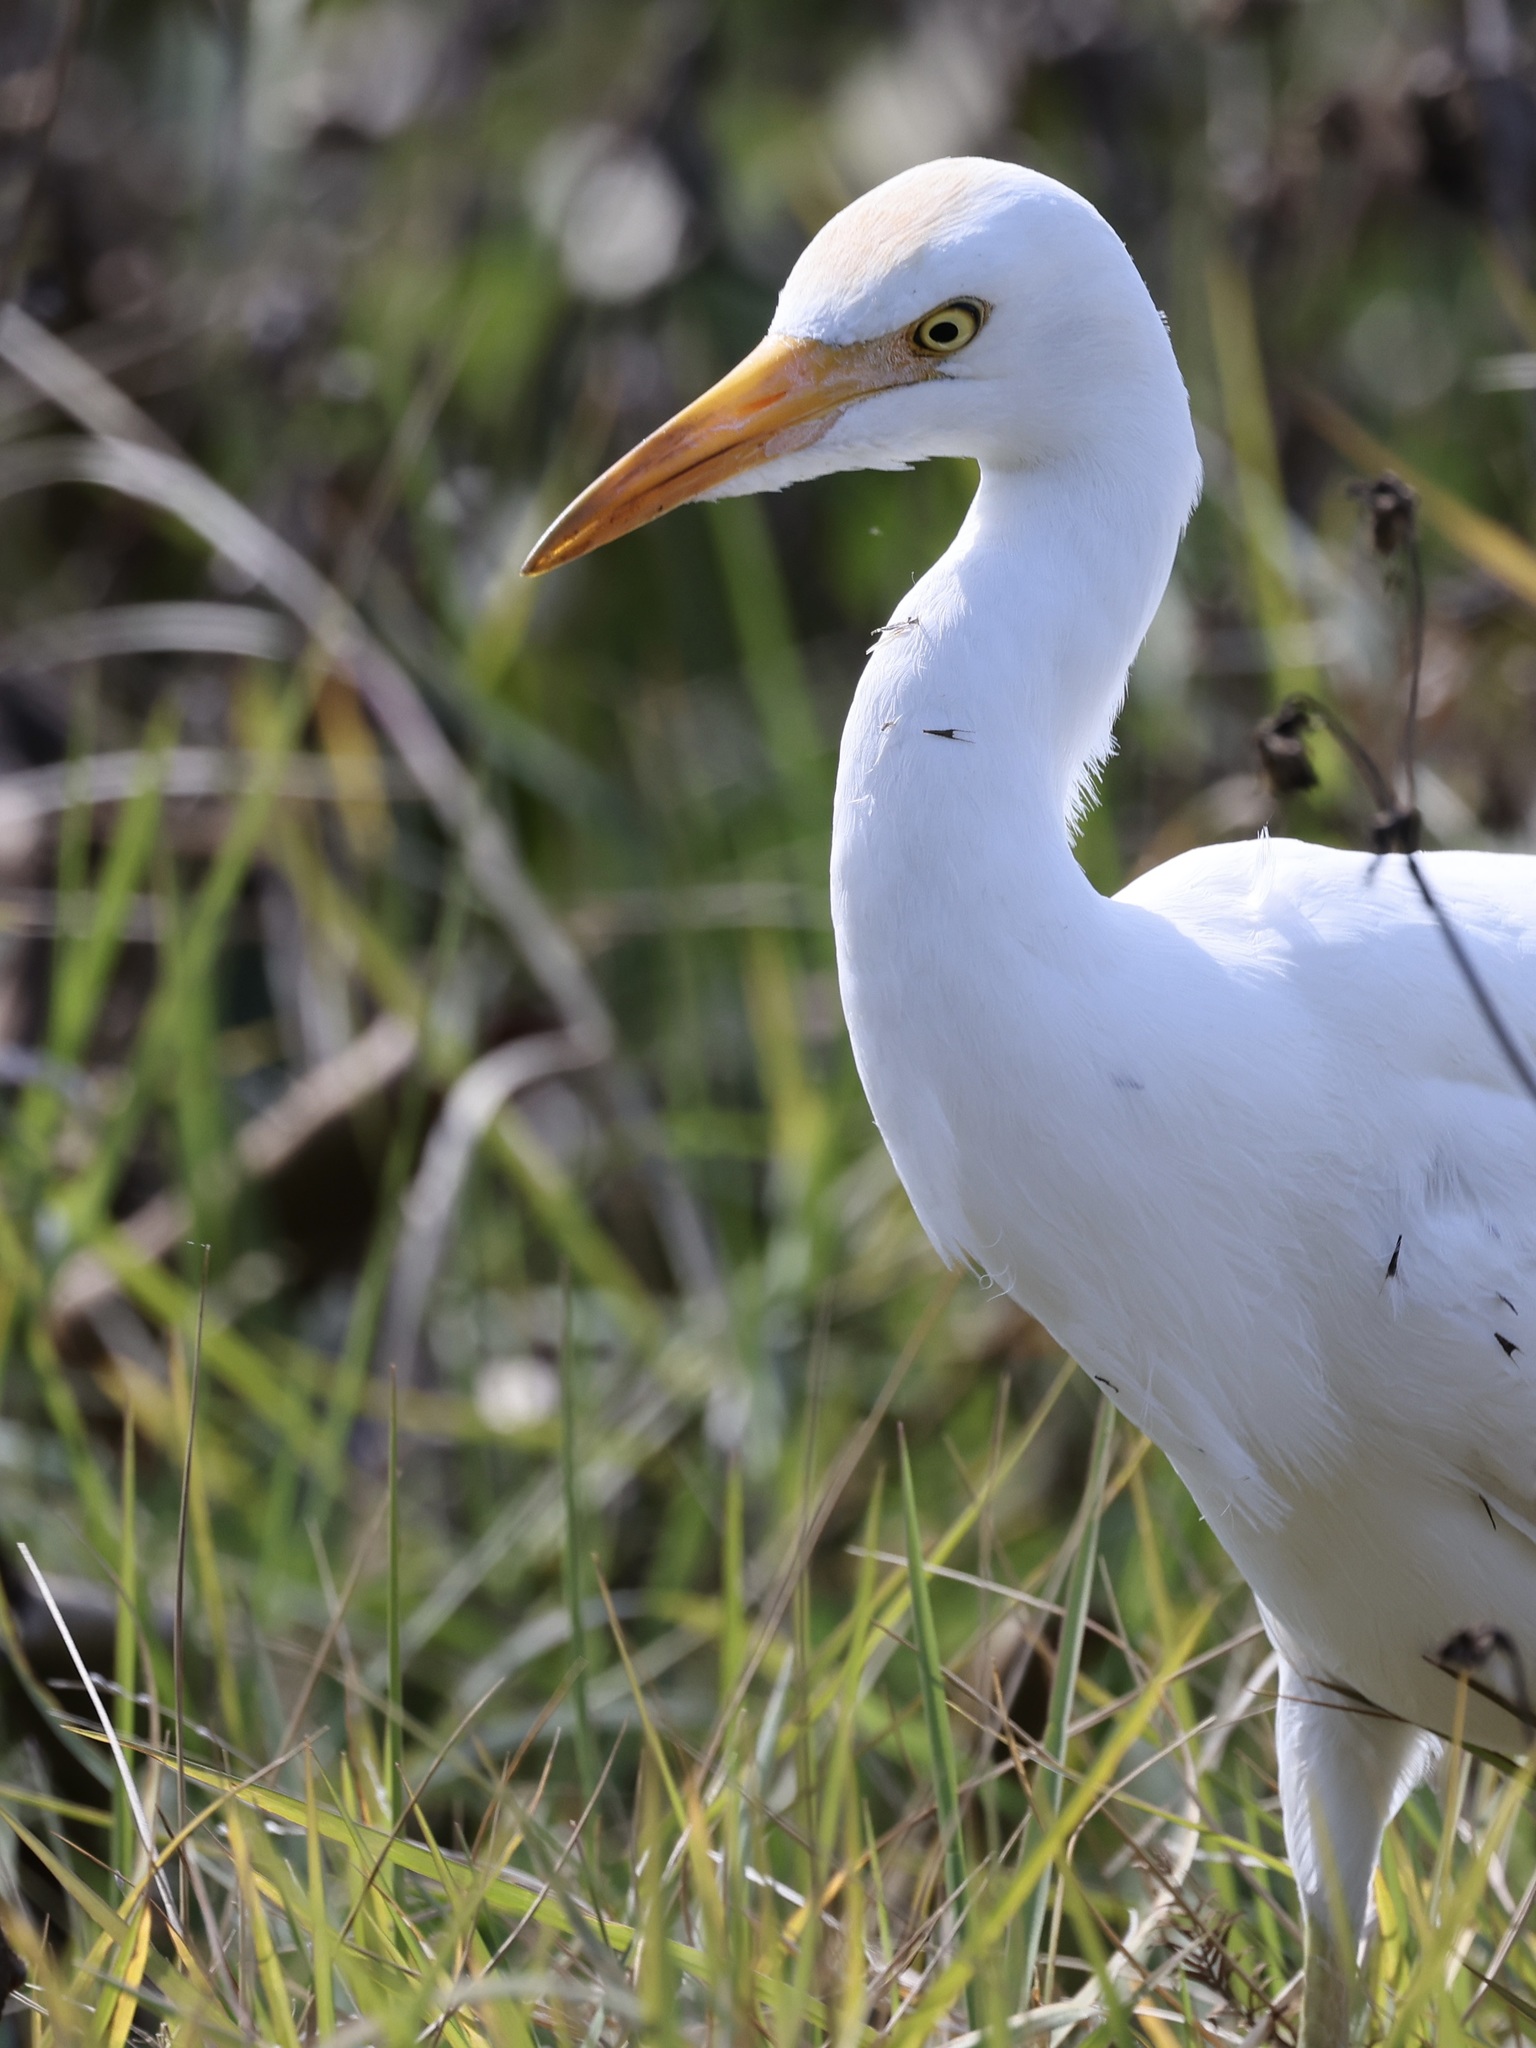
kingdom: Animalia
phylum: Chordata
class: Aves
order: Pelecaniformes
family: Ardeidae
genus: Bubulcus
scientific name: Bubulcus ibis
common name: Cattle egret
